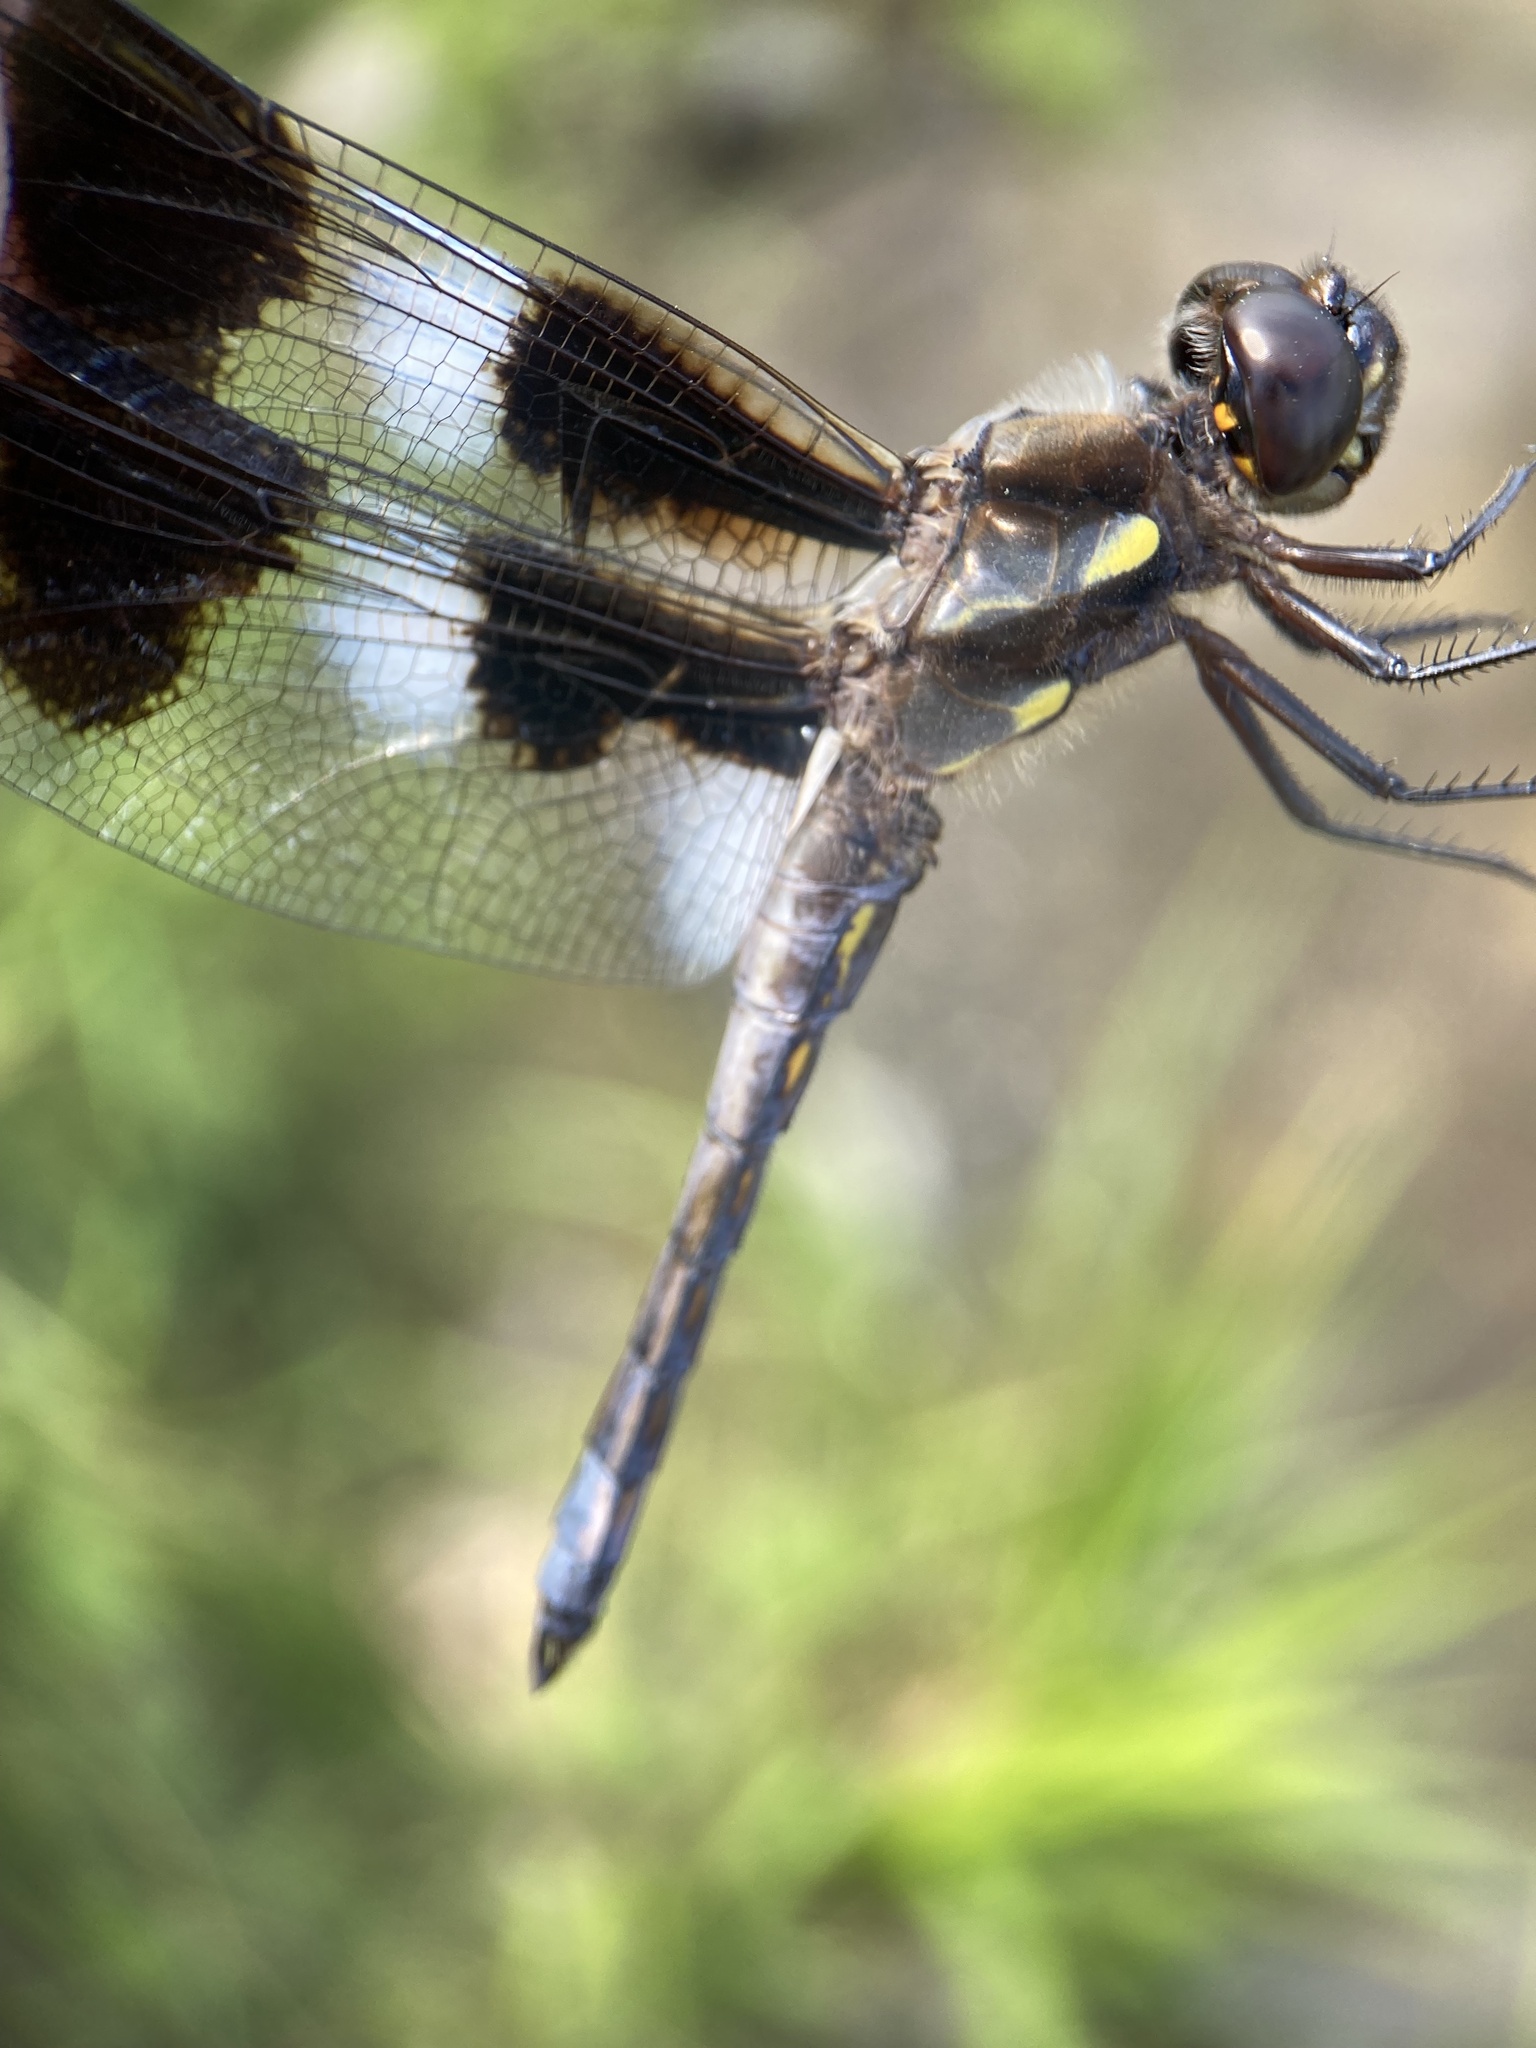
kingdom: Animalia
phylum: Arthropoda
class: Insecta
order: Odonata
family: Libellulidae
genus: Libellula
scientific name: Libellula pulchella
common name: Twelve-spotted skimmer
